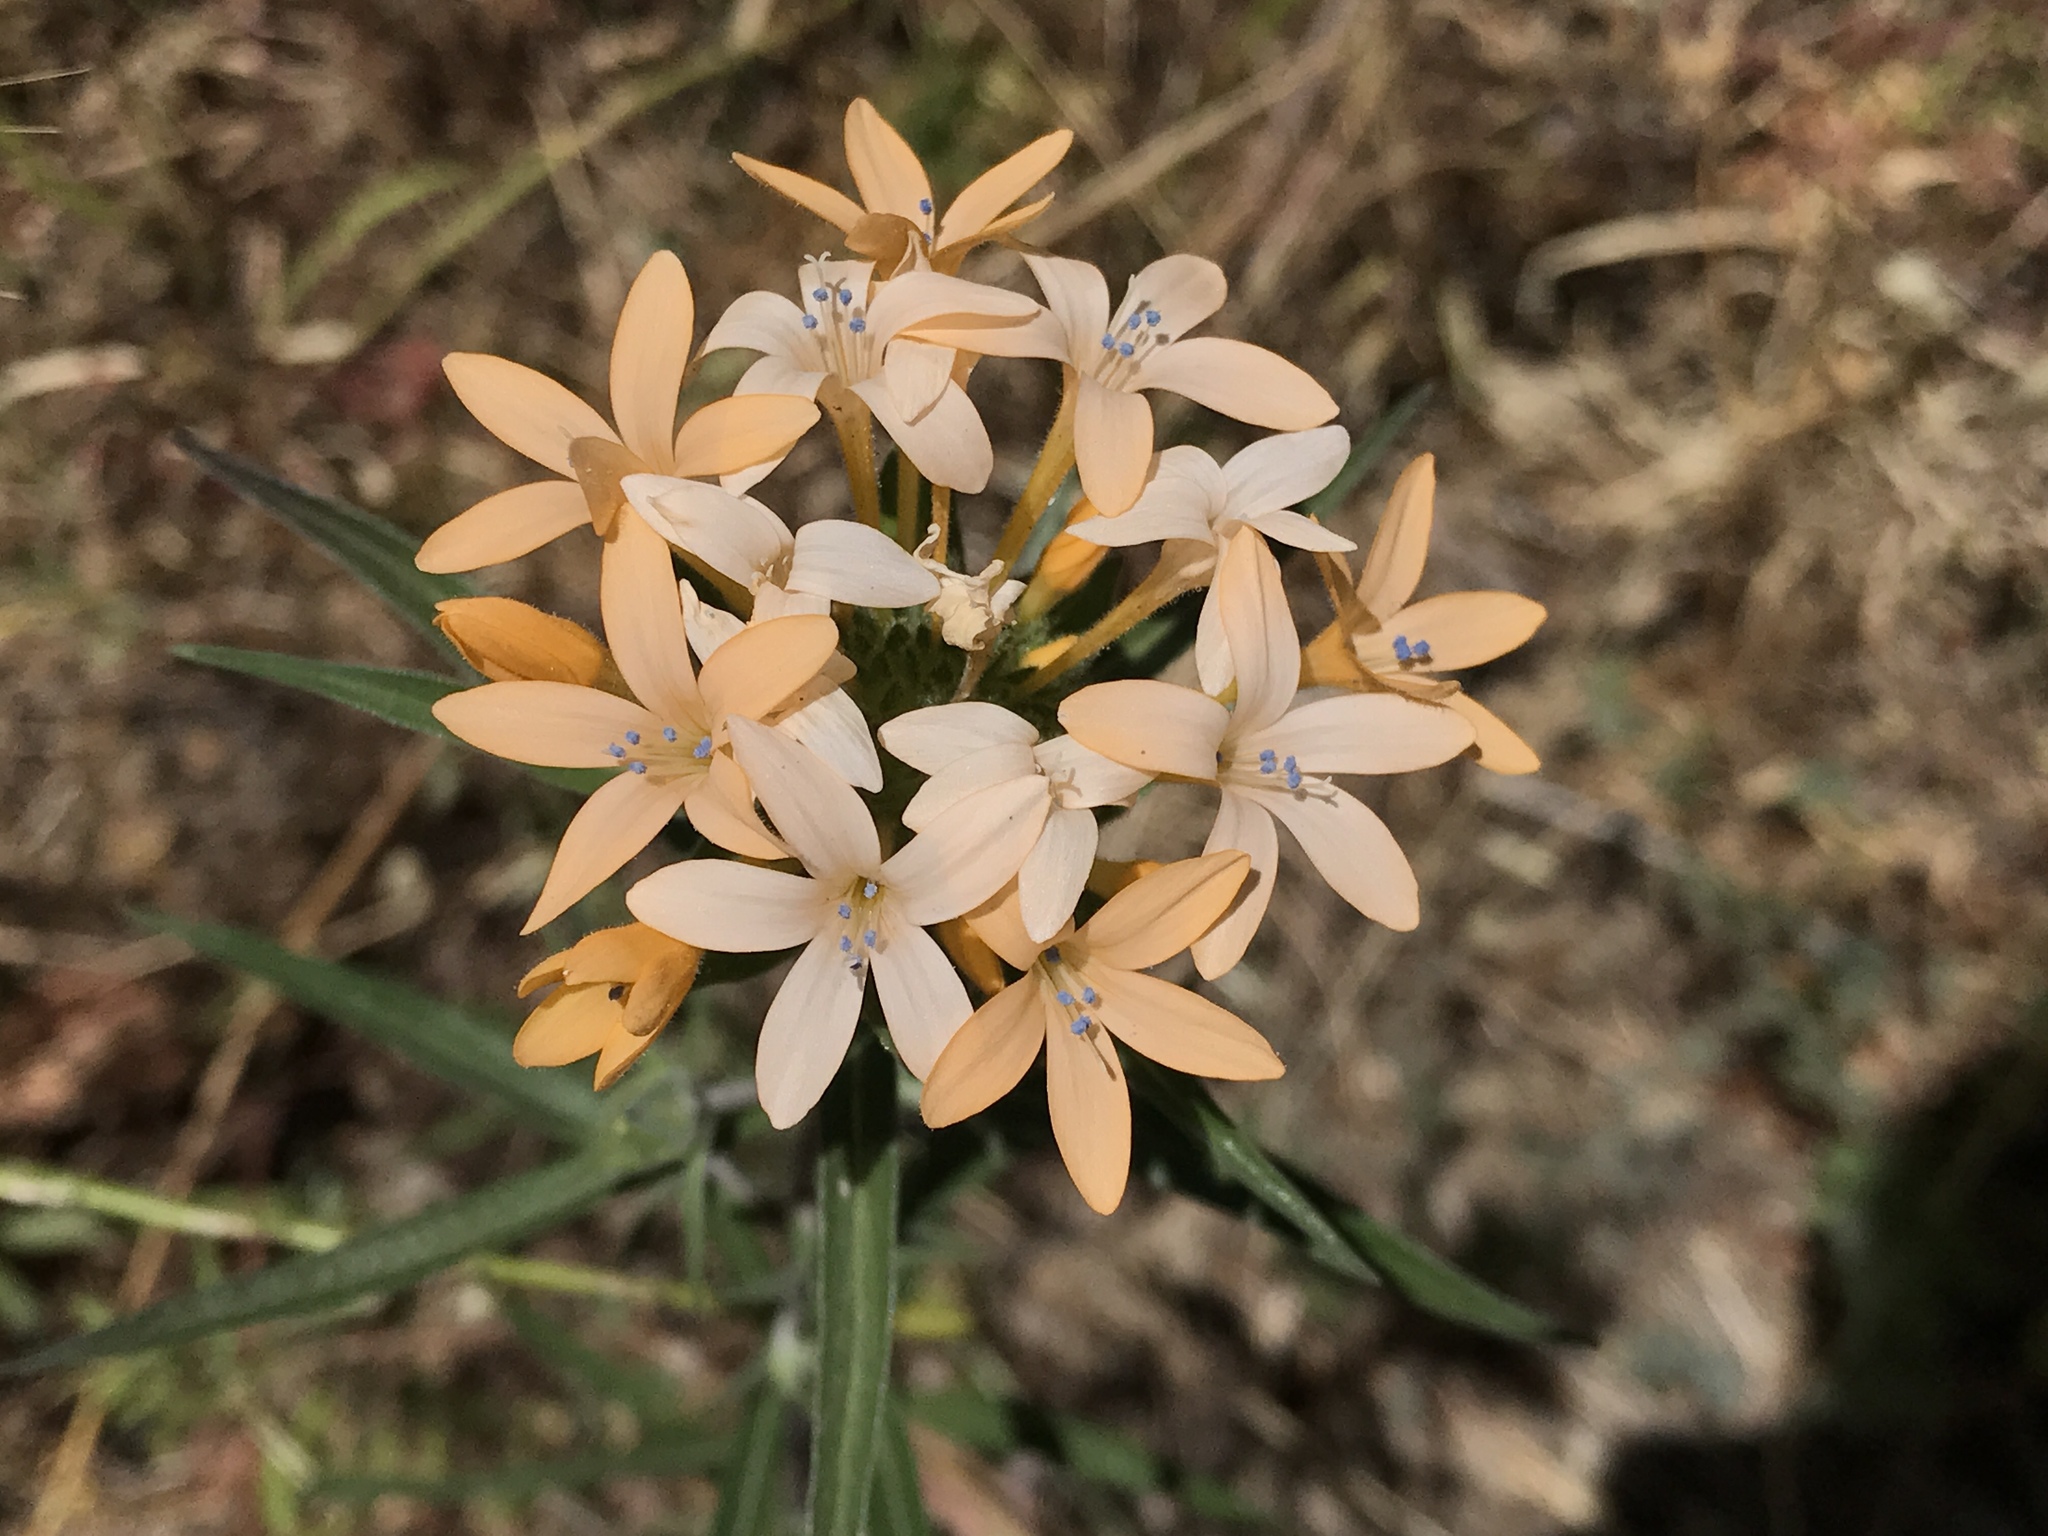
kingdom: Plantae
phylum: Tracheophyta
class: Magnoliopsida
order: Ericales
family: Polemoniaceae
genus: Collomia
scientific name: Collomia grandiflora
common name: California strawflower
